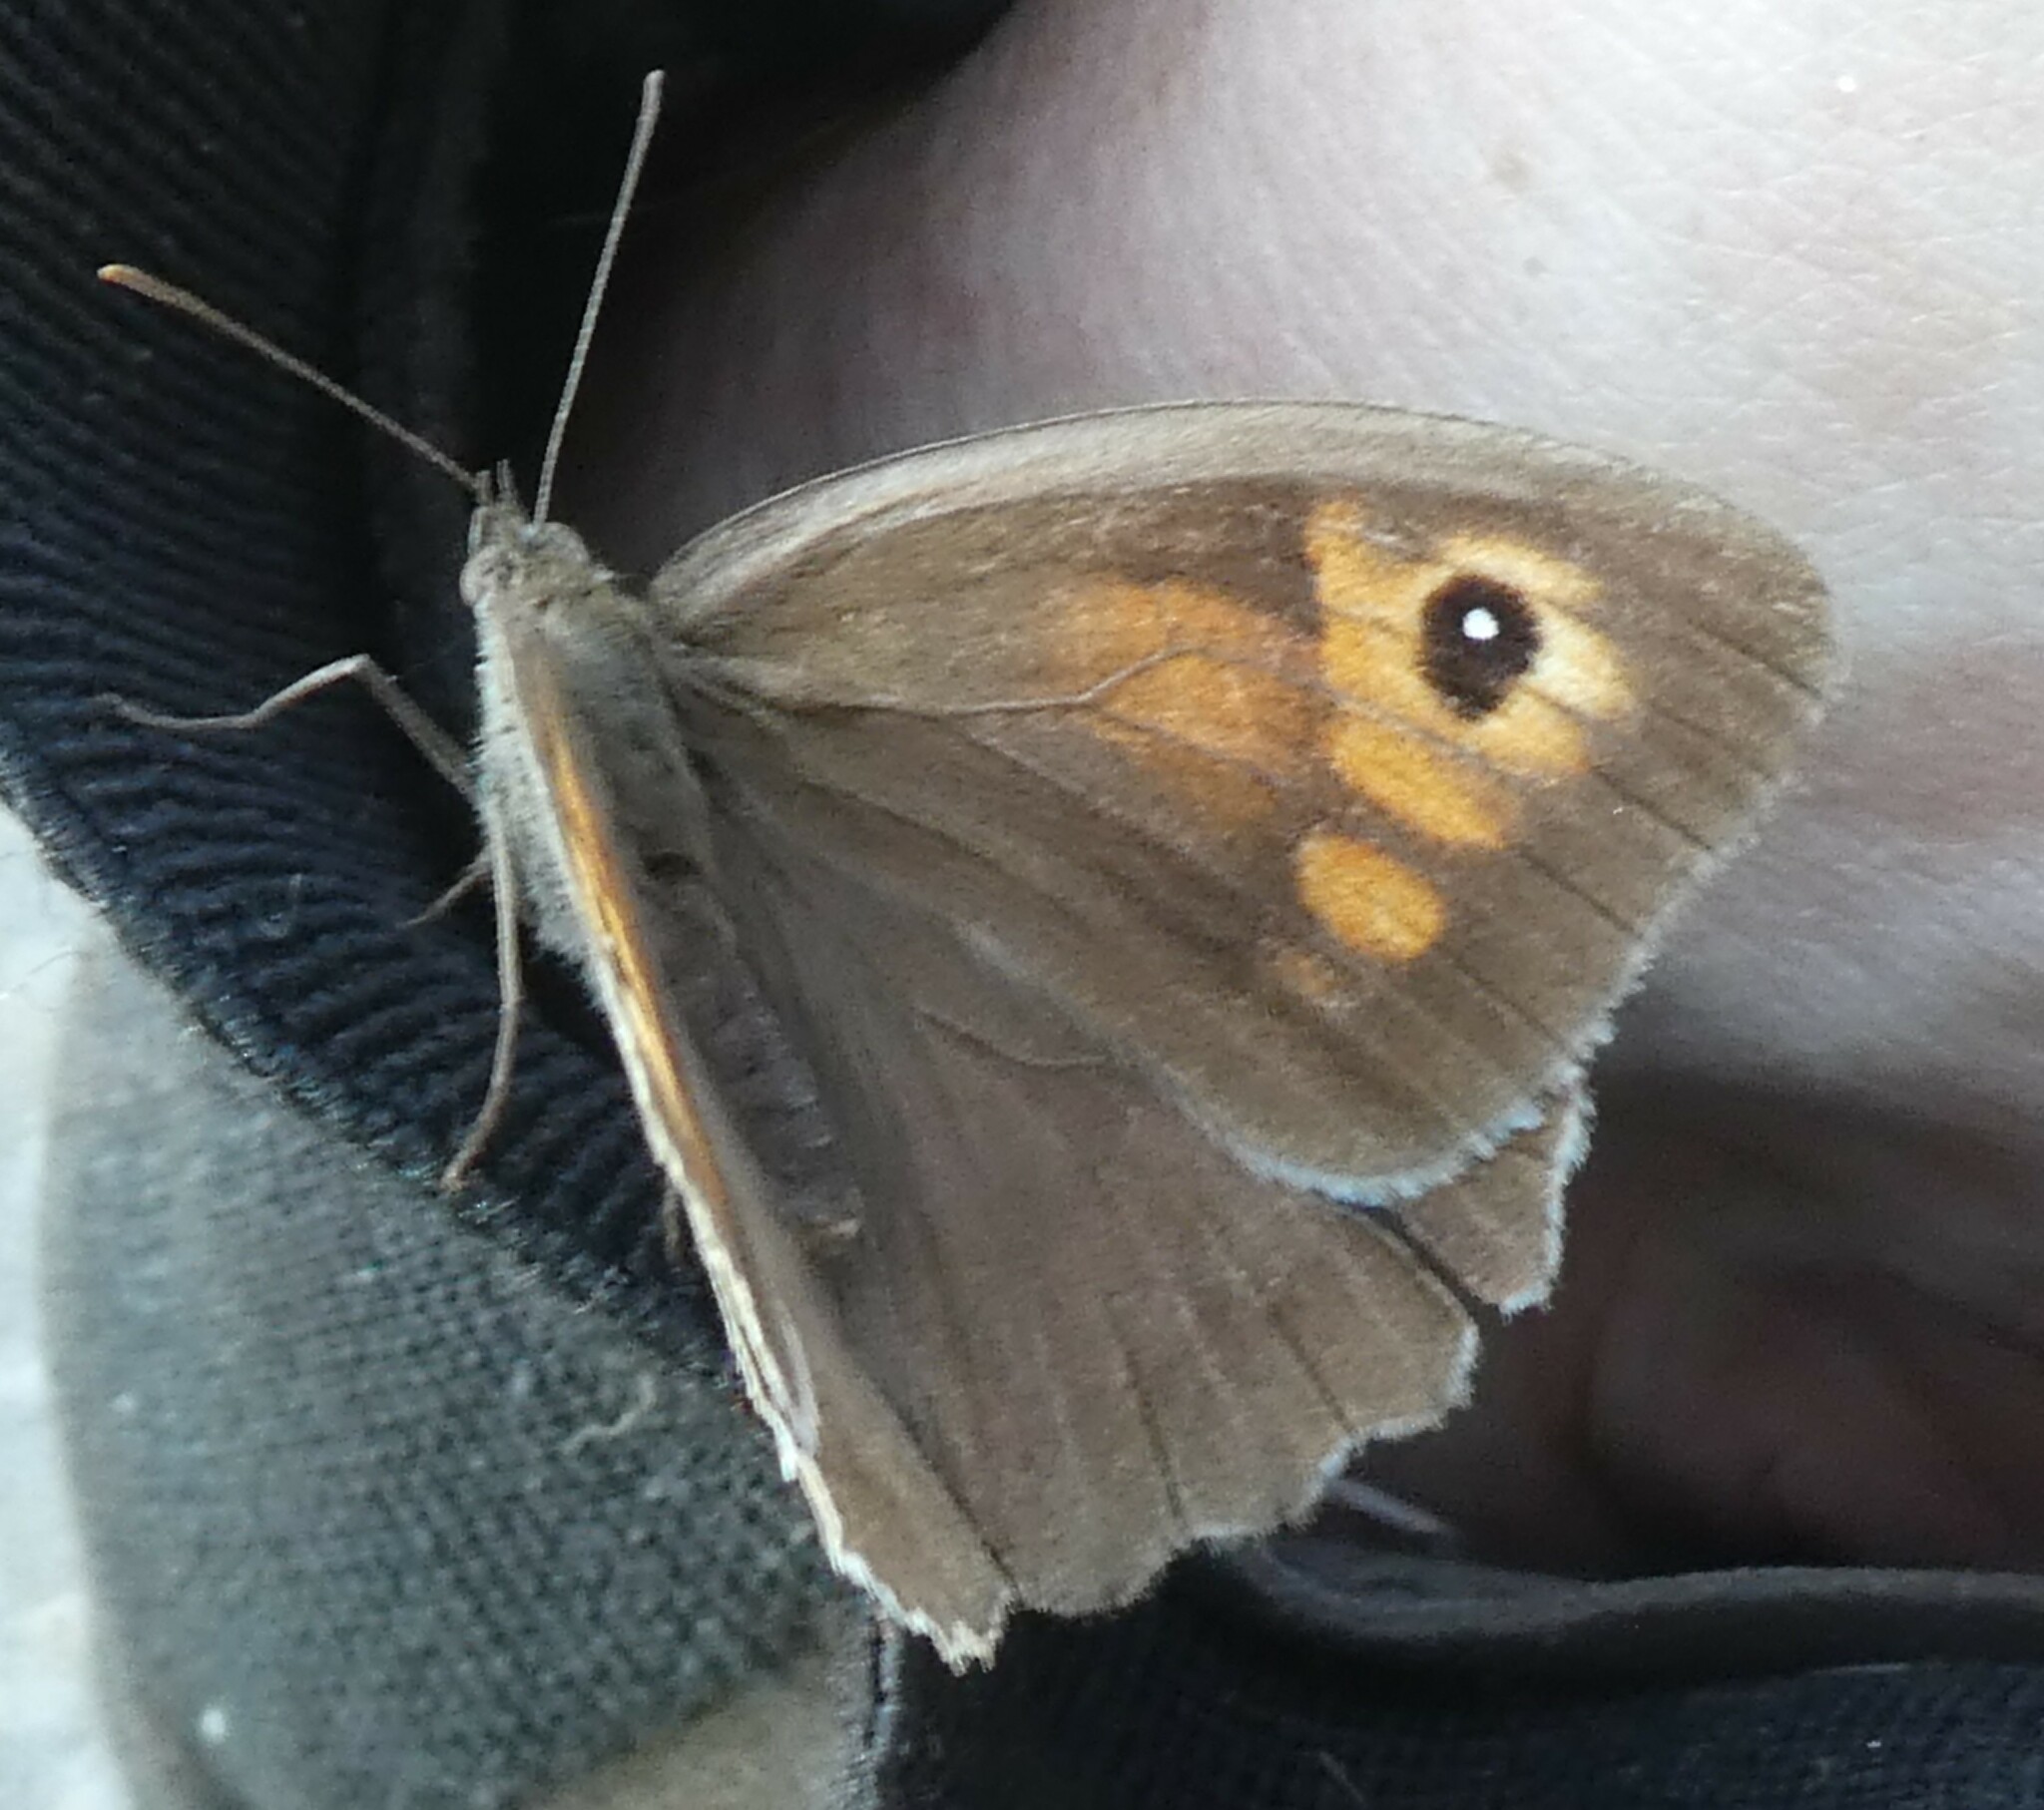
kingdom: Animalia
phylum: Arthropoda
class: Insecta
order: Lepidoptera
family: Nymphalidae
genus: Maniola
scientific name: Maniola jurtina
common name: Meadow brown
